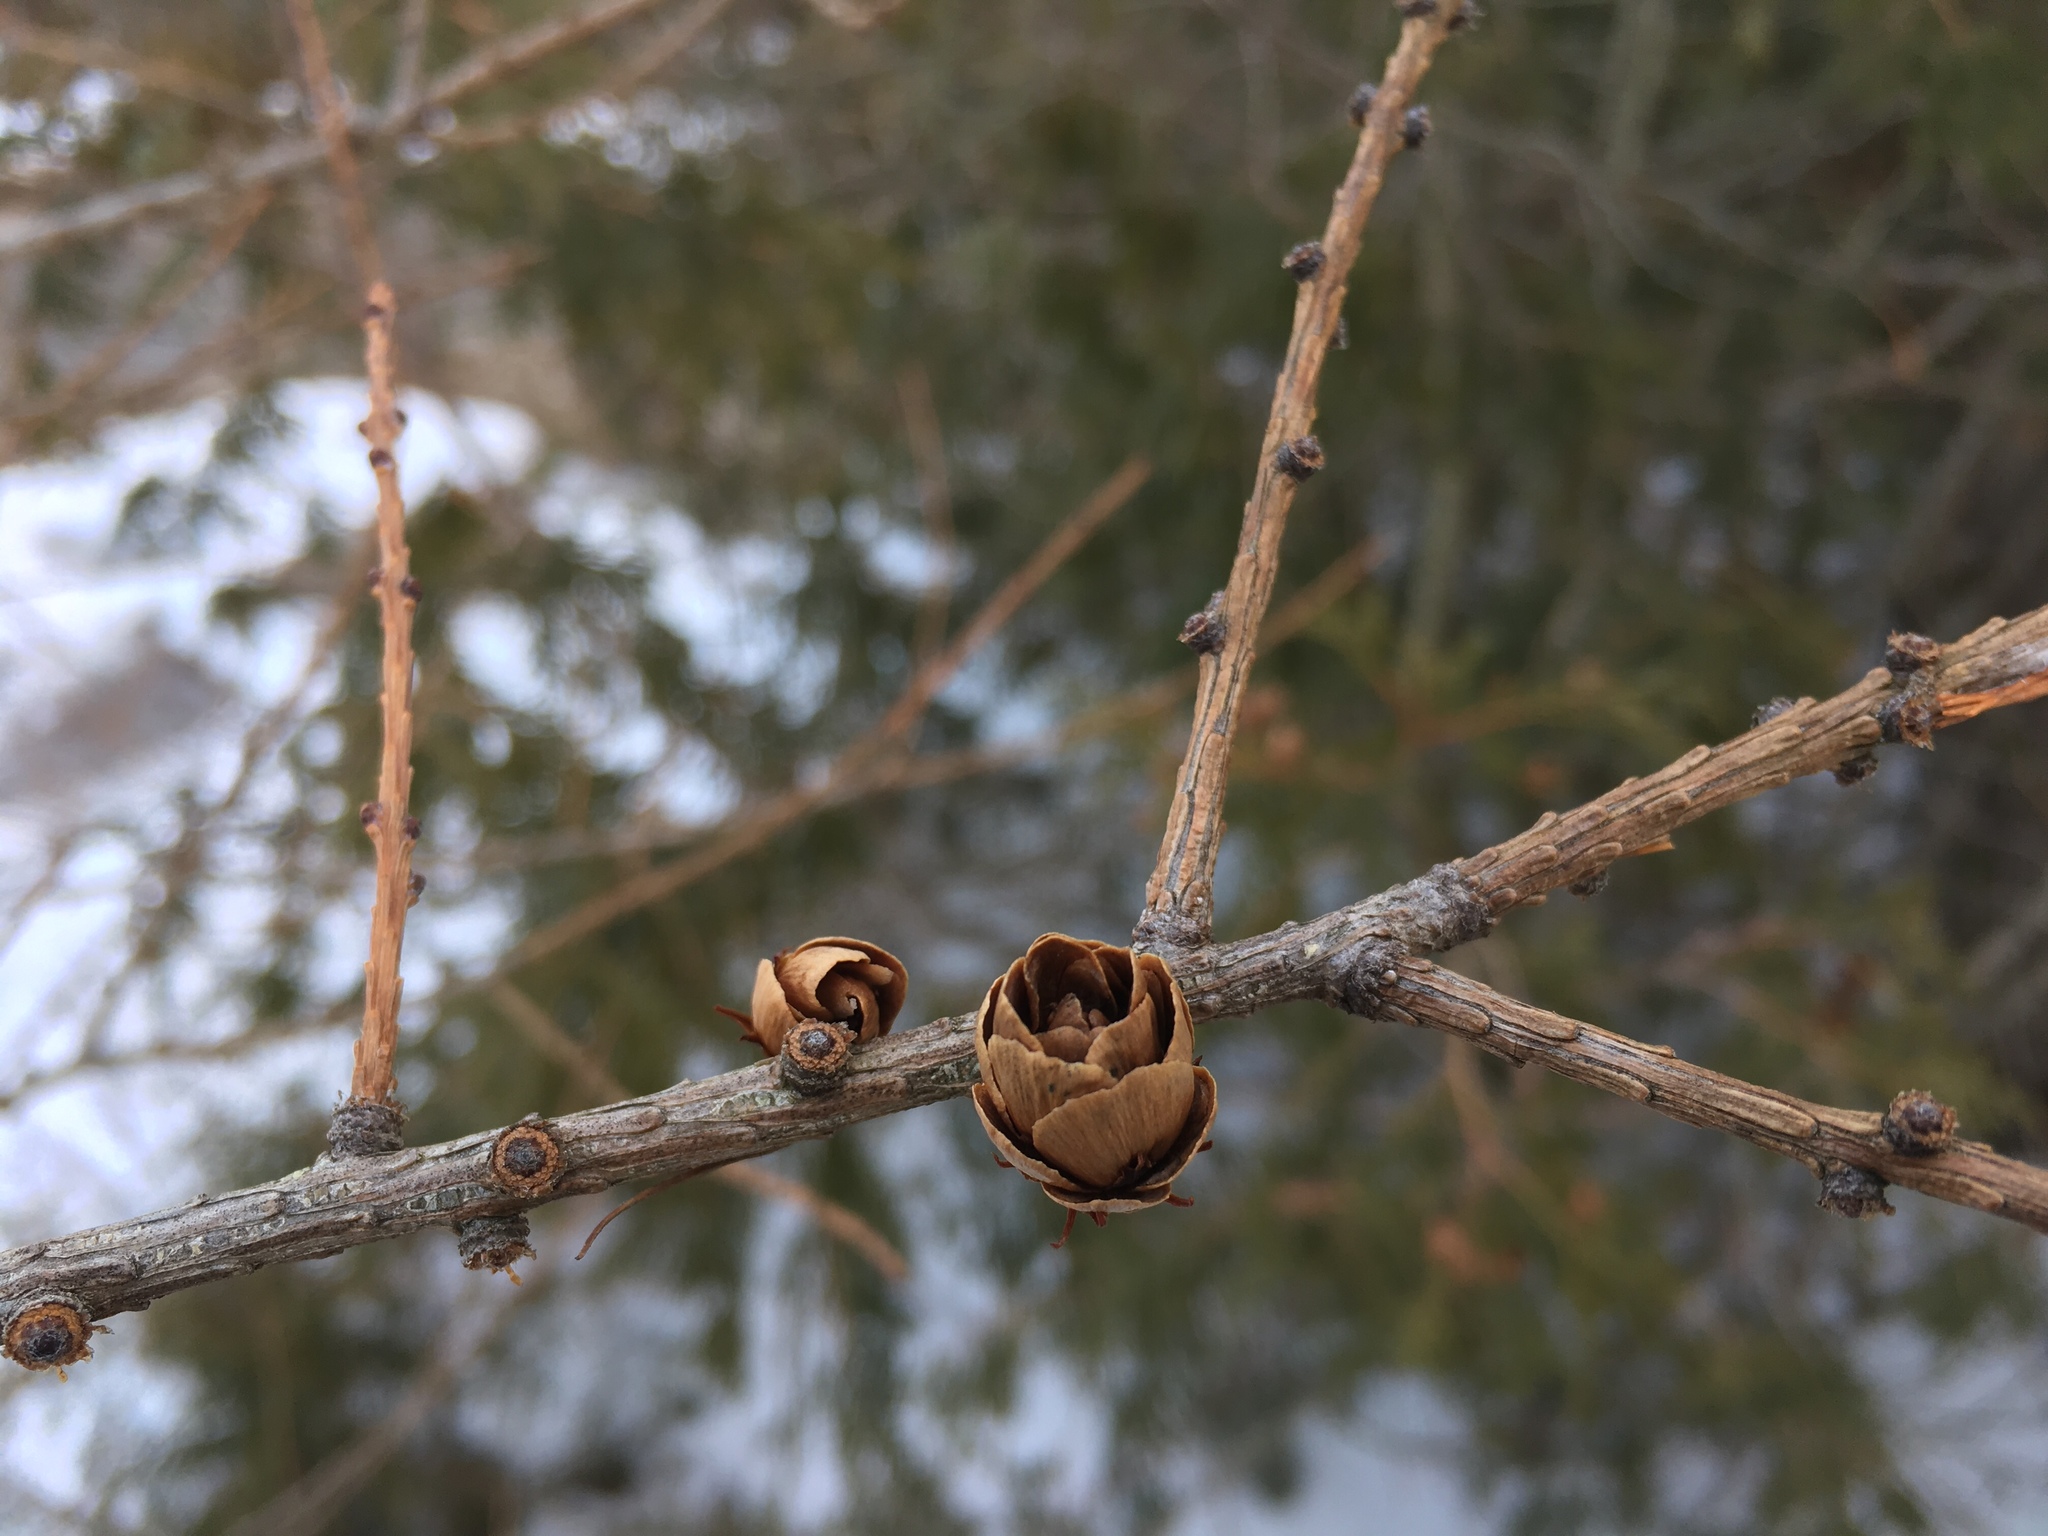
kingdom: Plantae
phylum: Tracheophyta
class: Pinopsida
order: Pinales
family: Pinaceae
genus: Larix
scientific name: Larix laricina
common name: American larch
